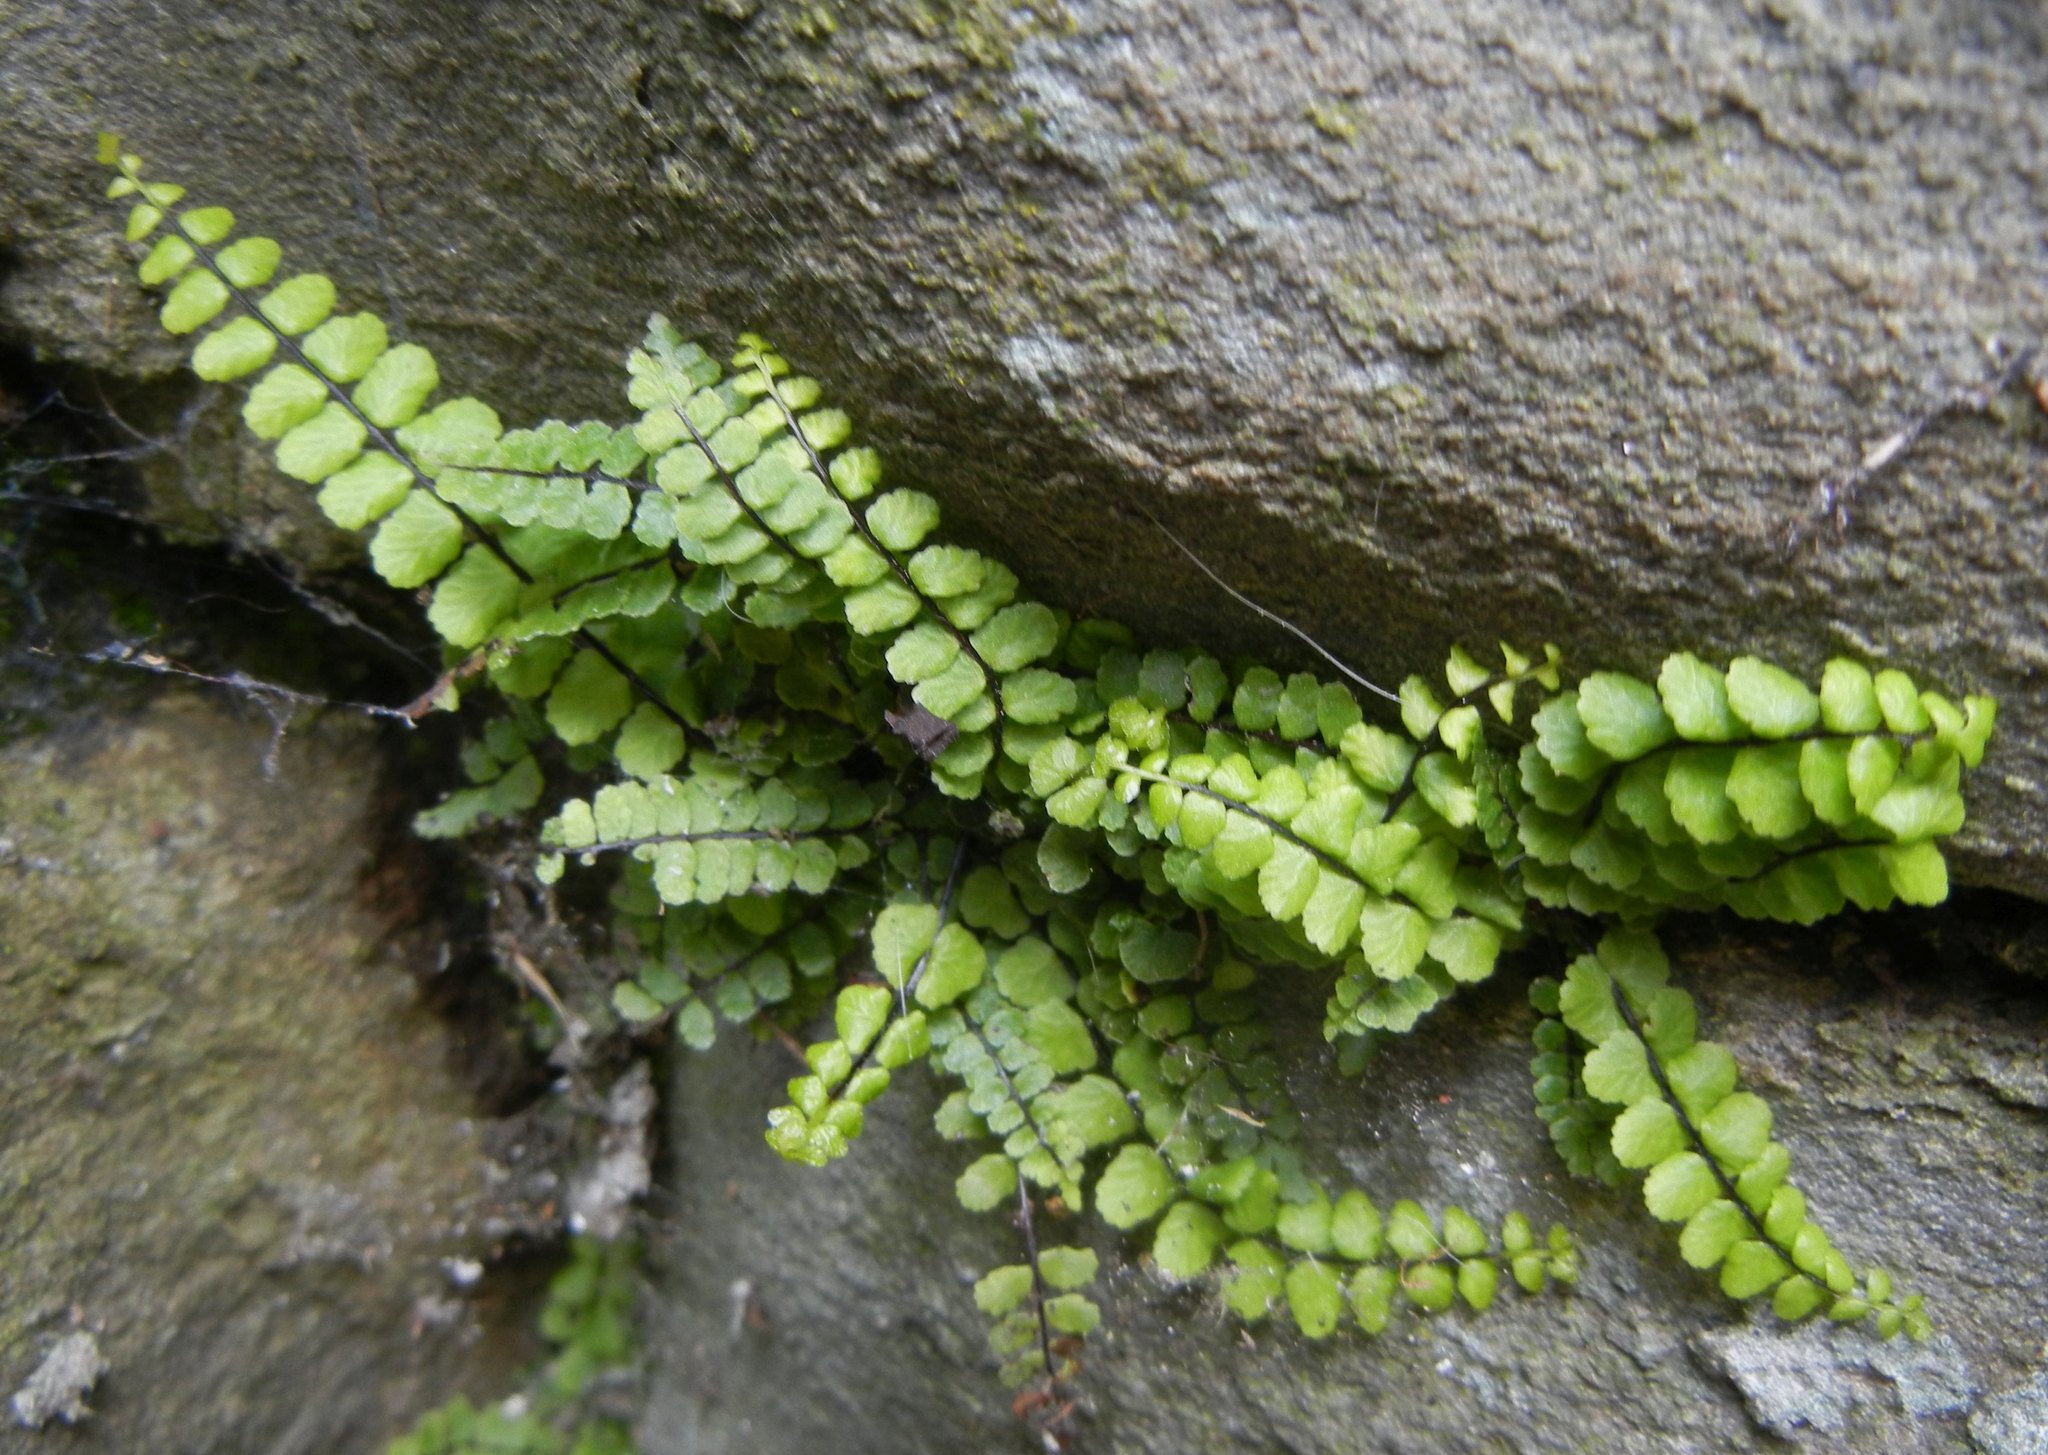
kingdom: Plantae
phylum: Tracheophyta
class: Polypodiopsida
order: Polypodiales
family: Aspleniaceae
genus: Asplenium
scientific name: Asplenium trichomanes
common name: Maidenhair spleenwort
